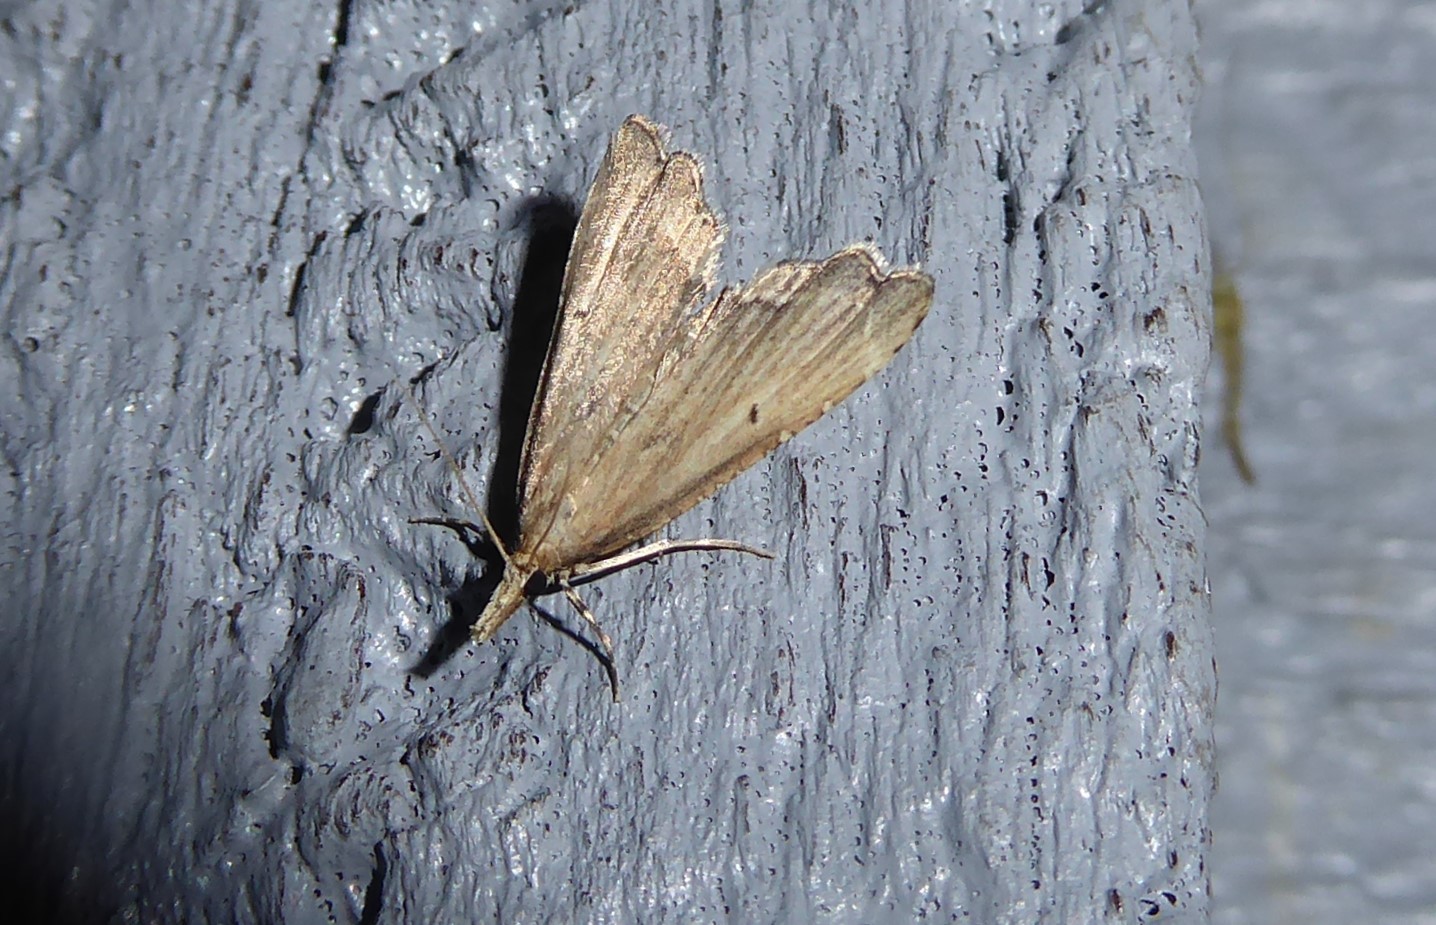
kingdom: Animalia
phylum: Arthropoda
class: Insecta
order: Lepidoptera
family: Crambidae
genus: Diplopseustis
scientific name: Diplopseustis perieresalis
